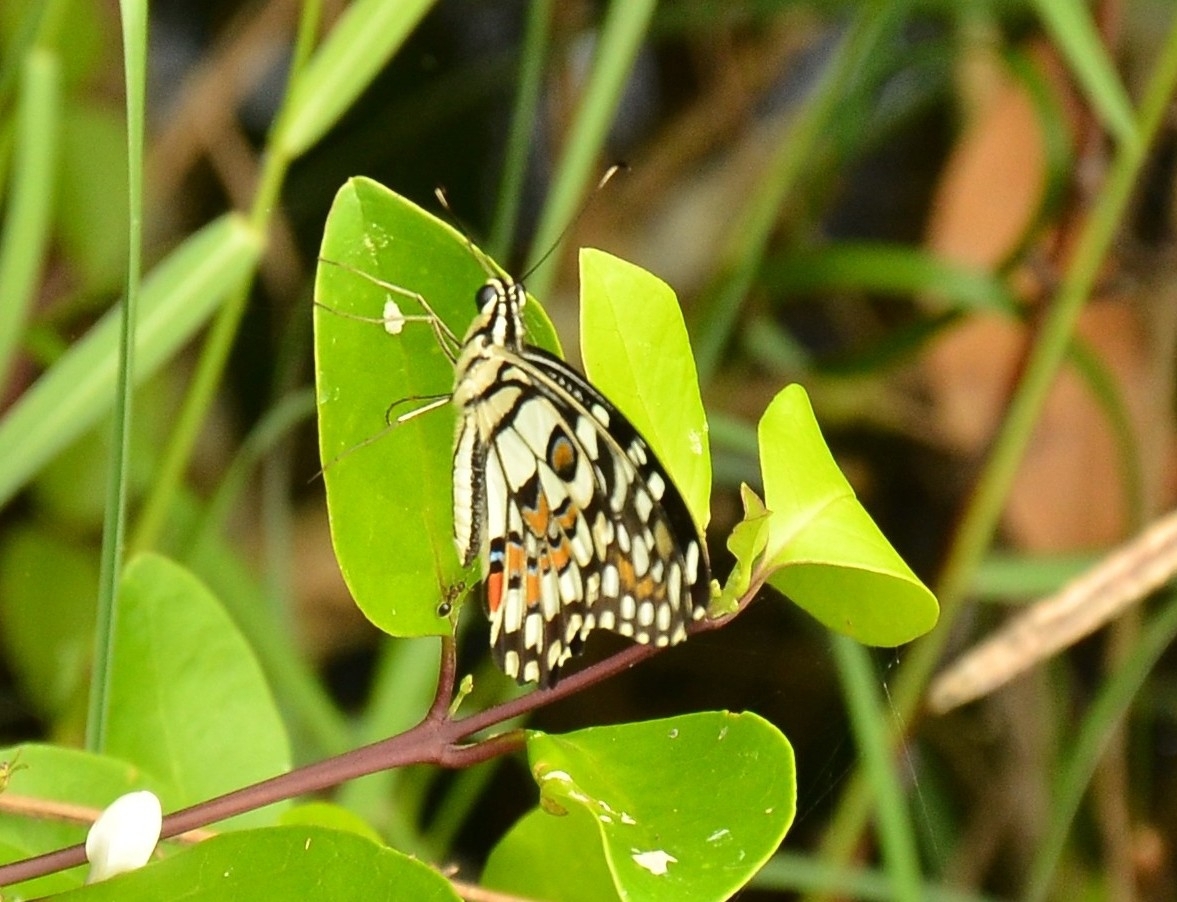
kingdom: Animalia
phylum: Arthropoda
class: Insecta
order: Lepidoptera
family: Papilionidae
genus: Papilio
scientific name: Papilio demoleus
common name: Lime butterfly
